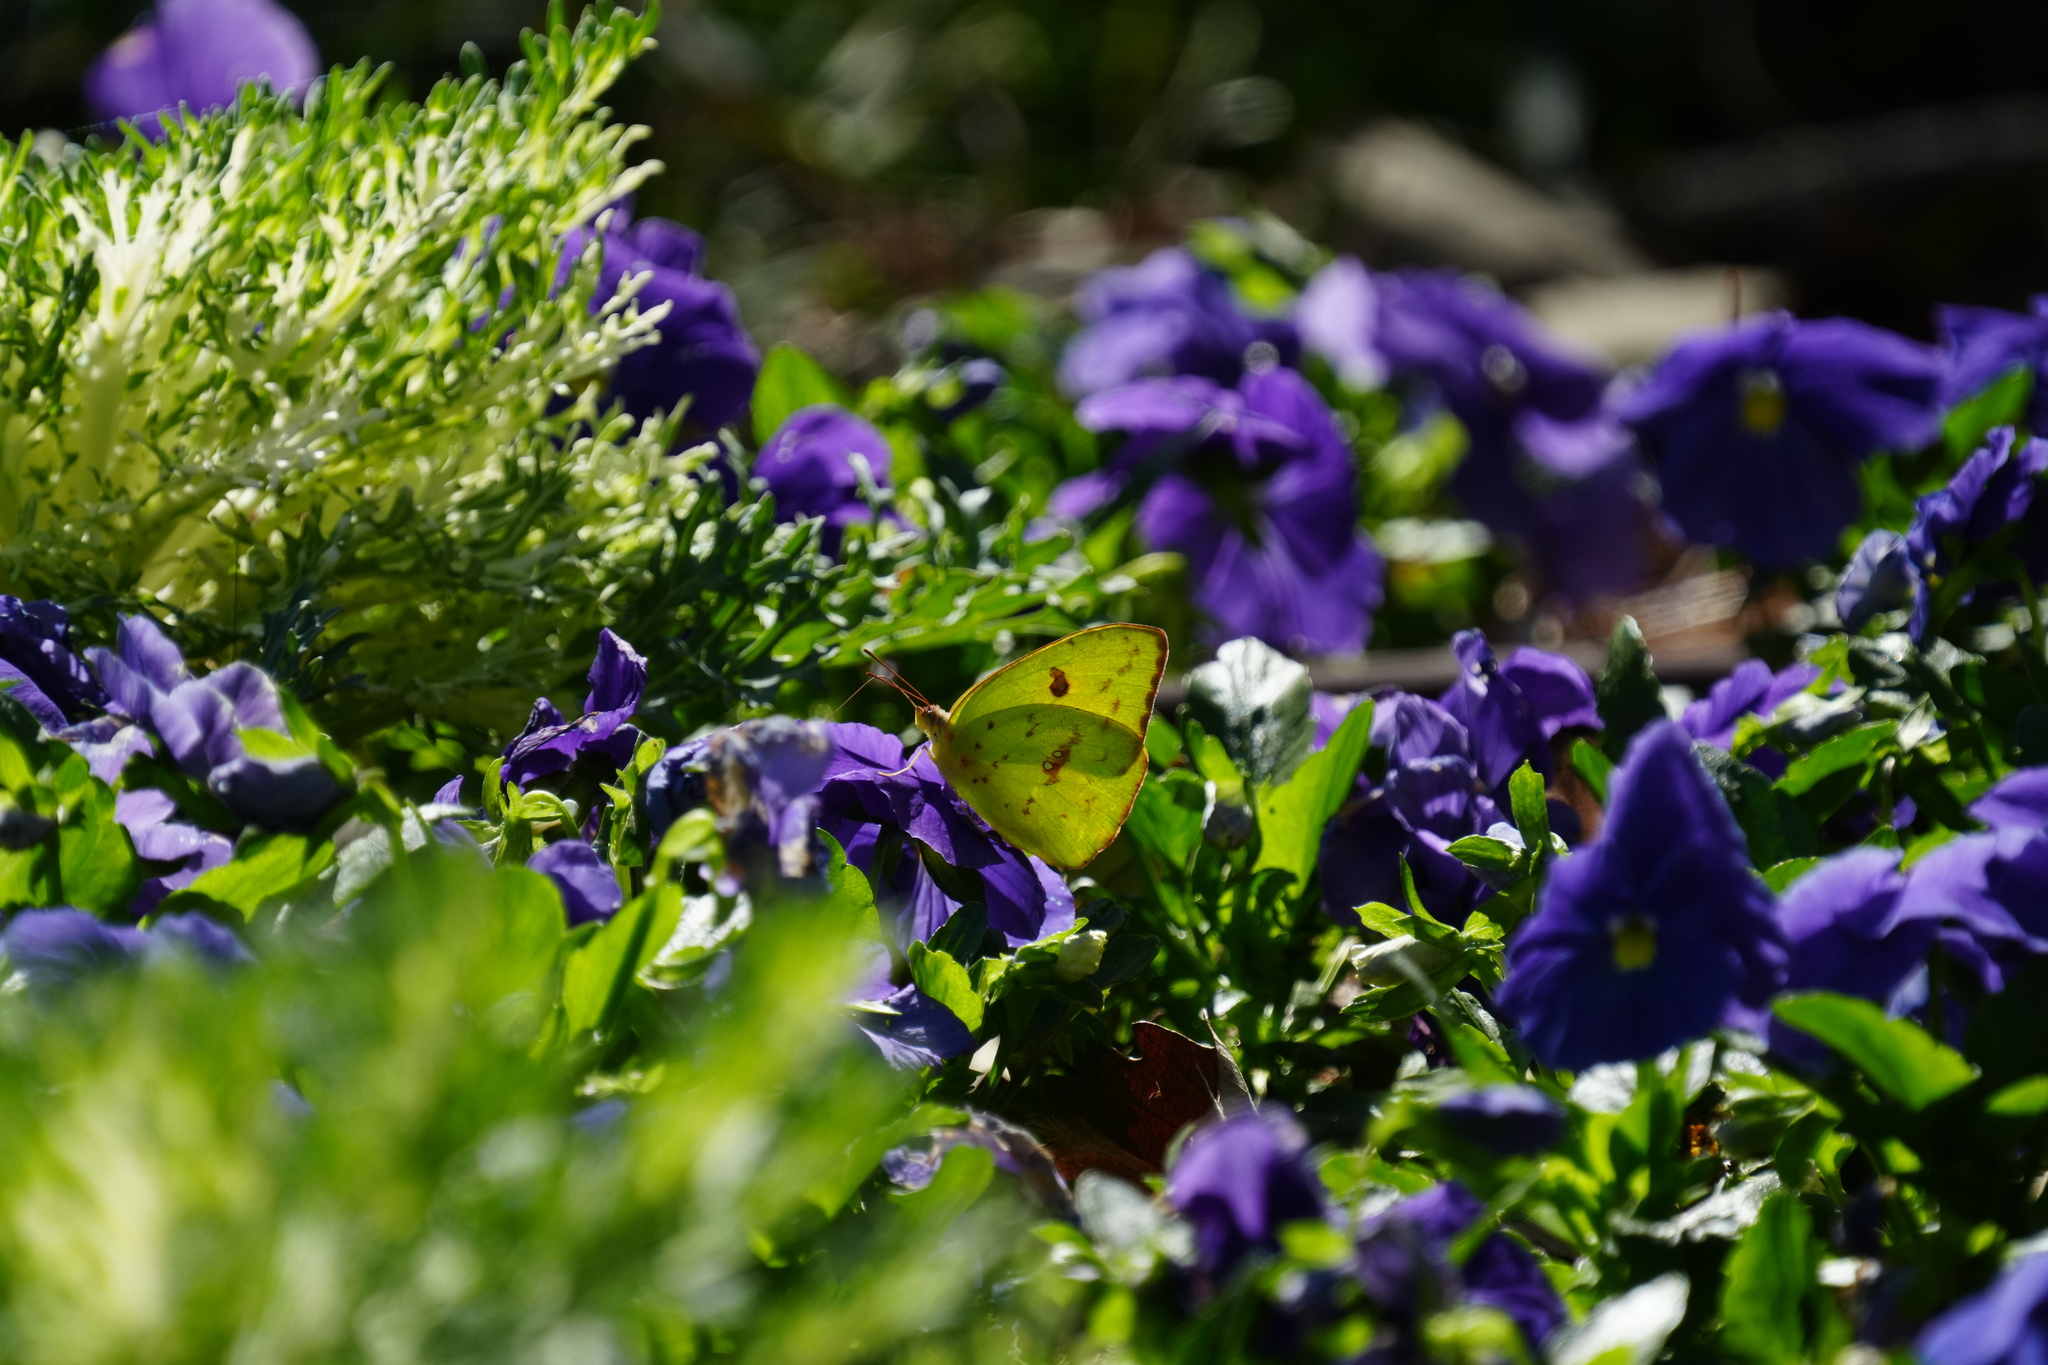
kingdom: Animalia
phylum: Arthropoda
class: Insecta
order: Lepidoptera
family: Pieridae
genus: Phoebis
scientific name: Phoebis sennae
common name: Cloudless sulphur
